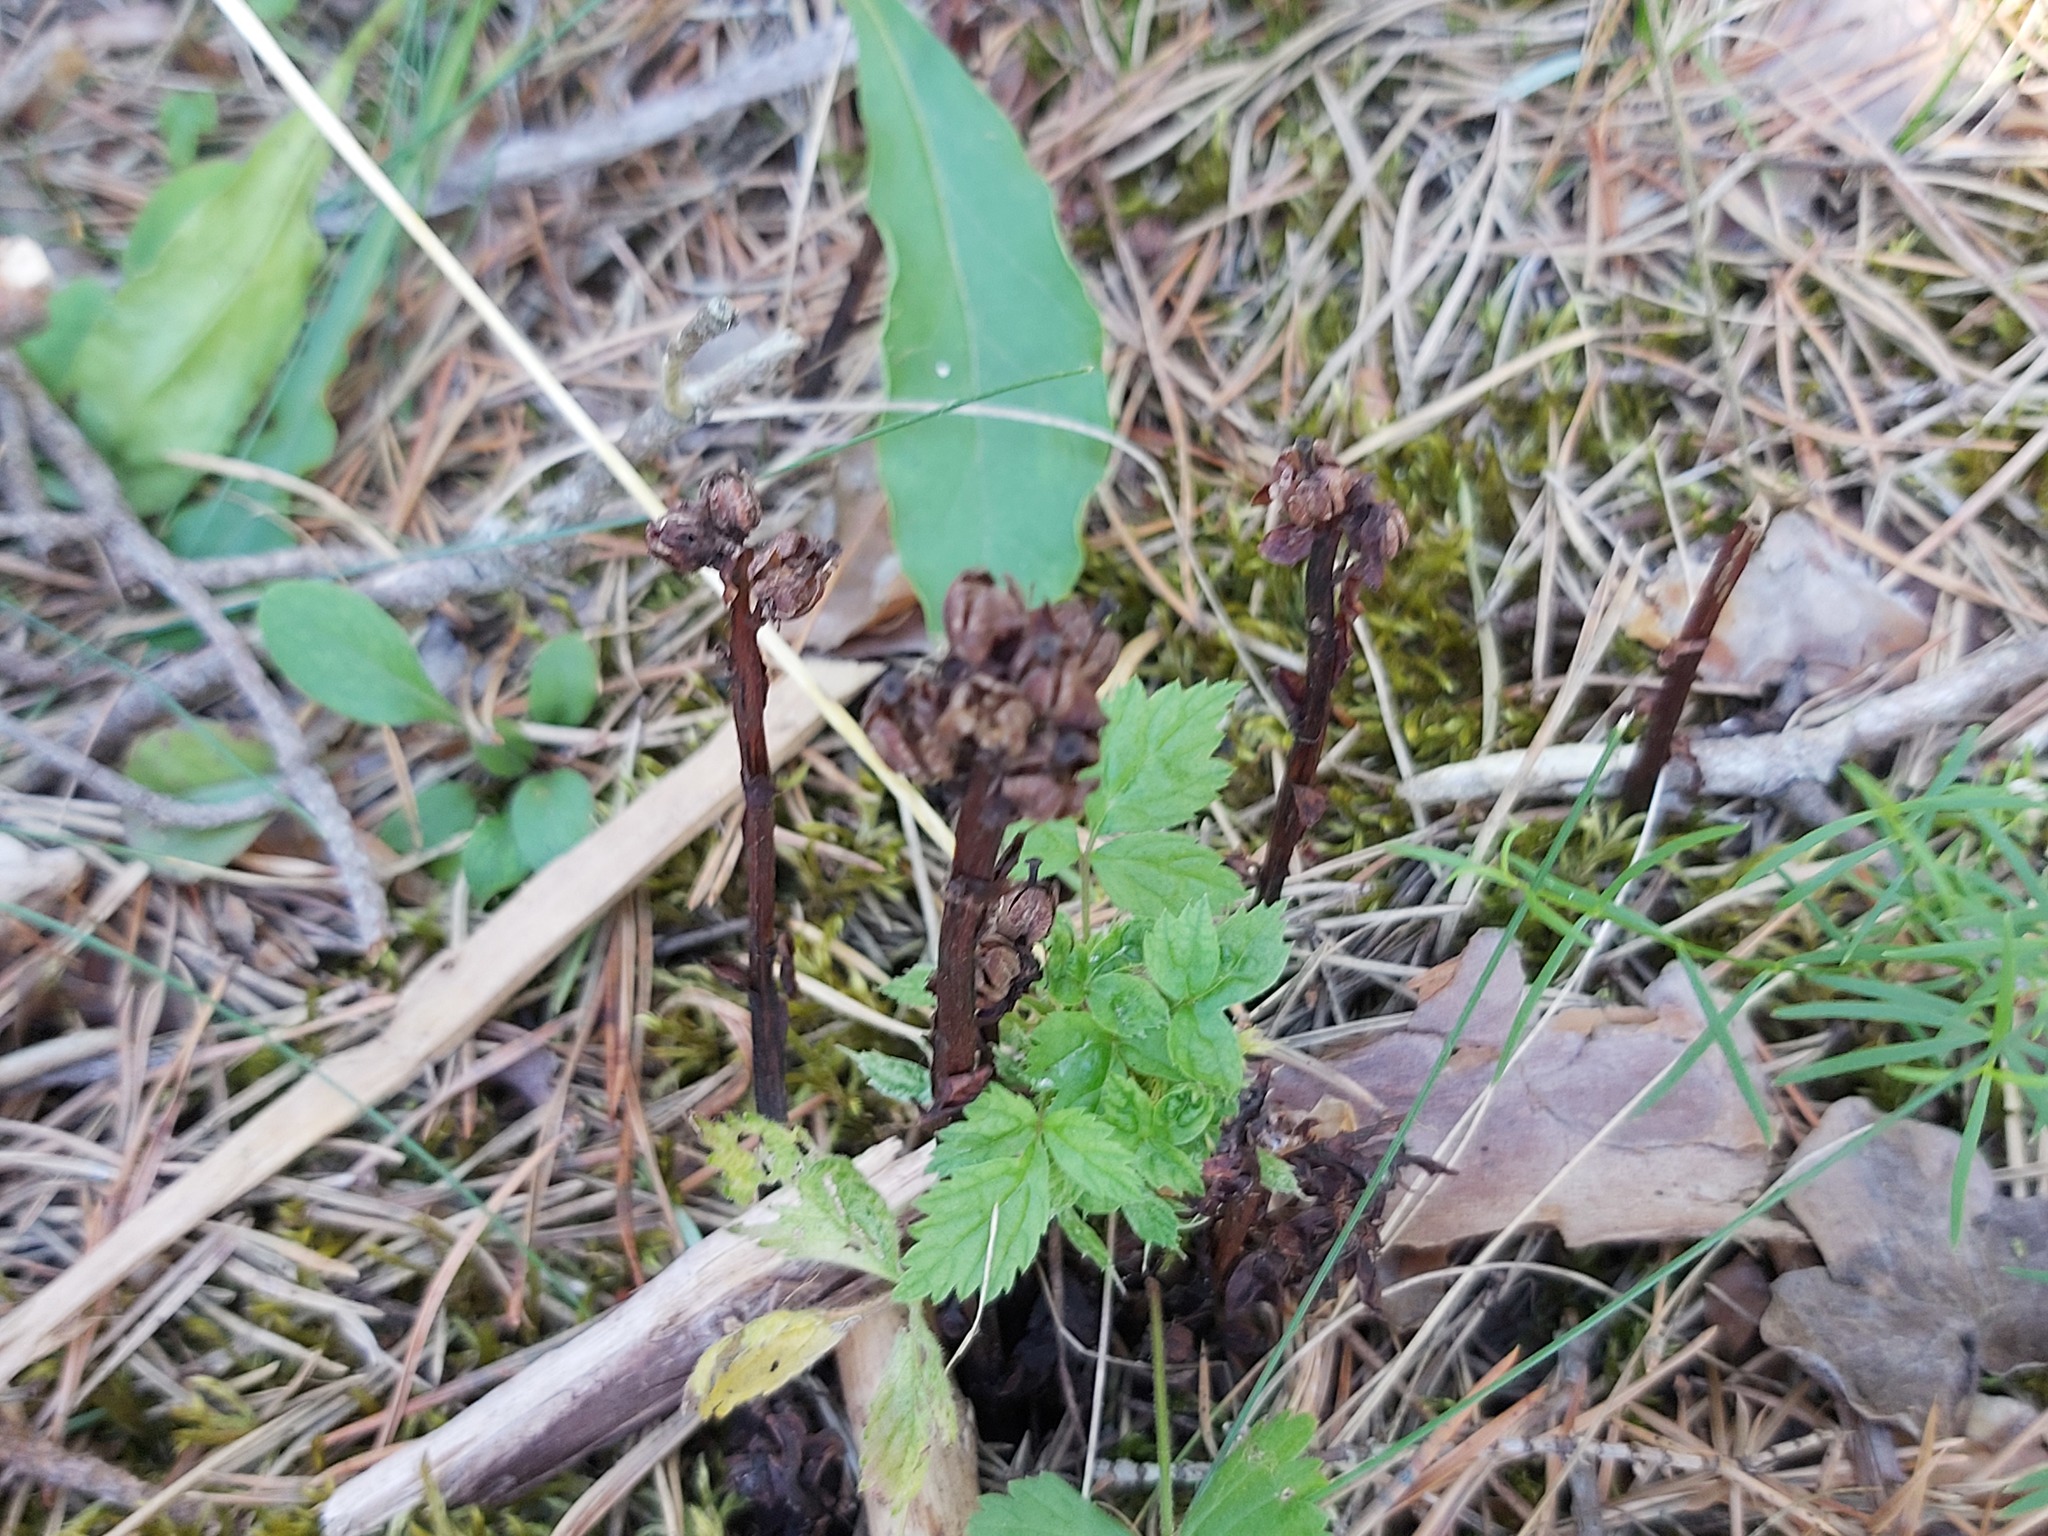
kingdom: Plantae
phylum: Tracheophyta
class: Magnoliopsida
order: Ericales
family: Ericaceae
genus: Hypopitys
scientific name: Hypopitys monotropa
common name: Yellow bird's-nest
